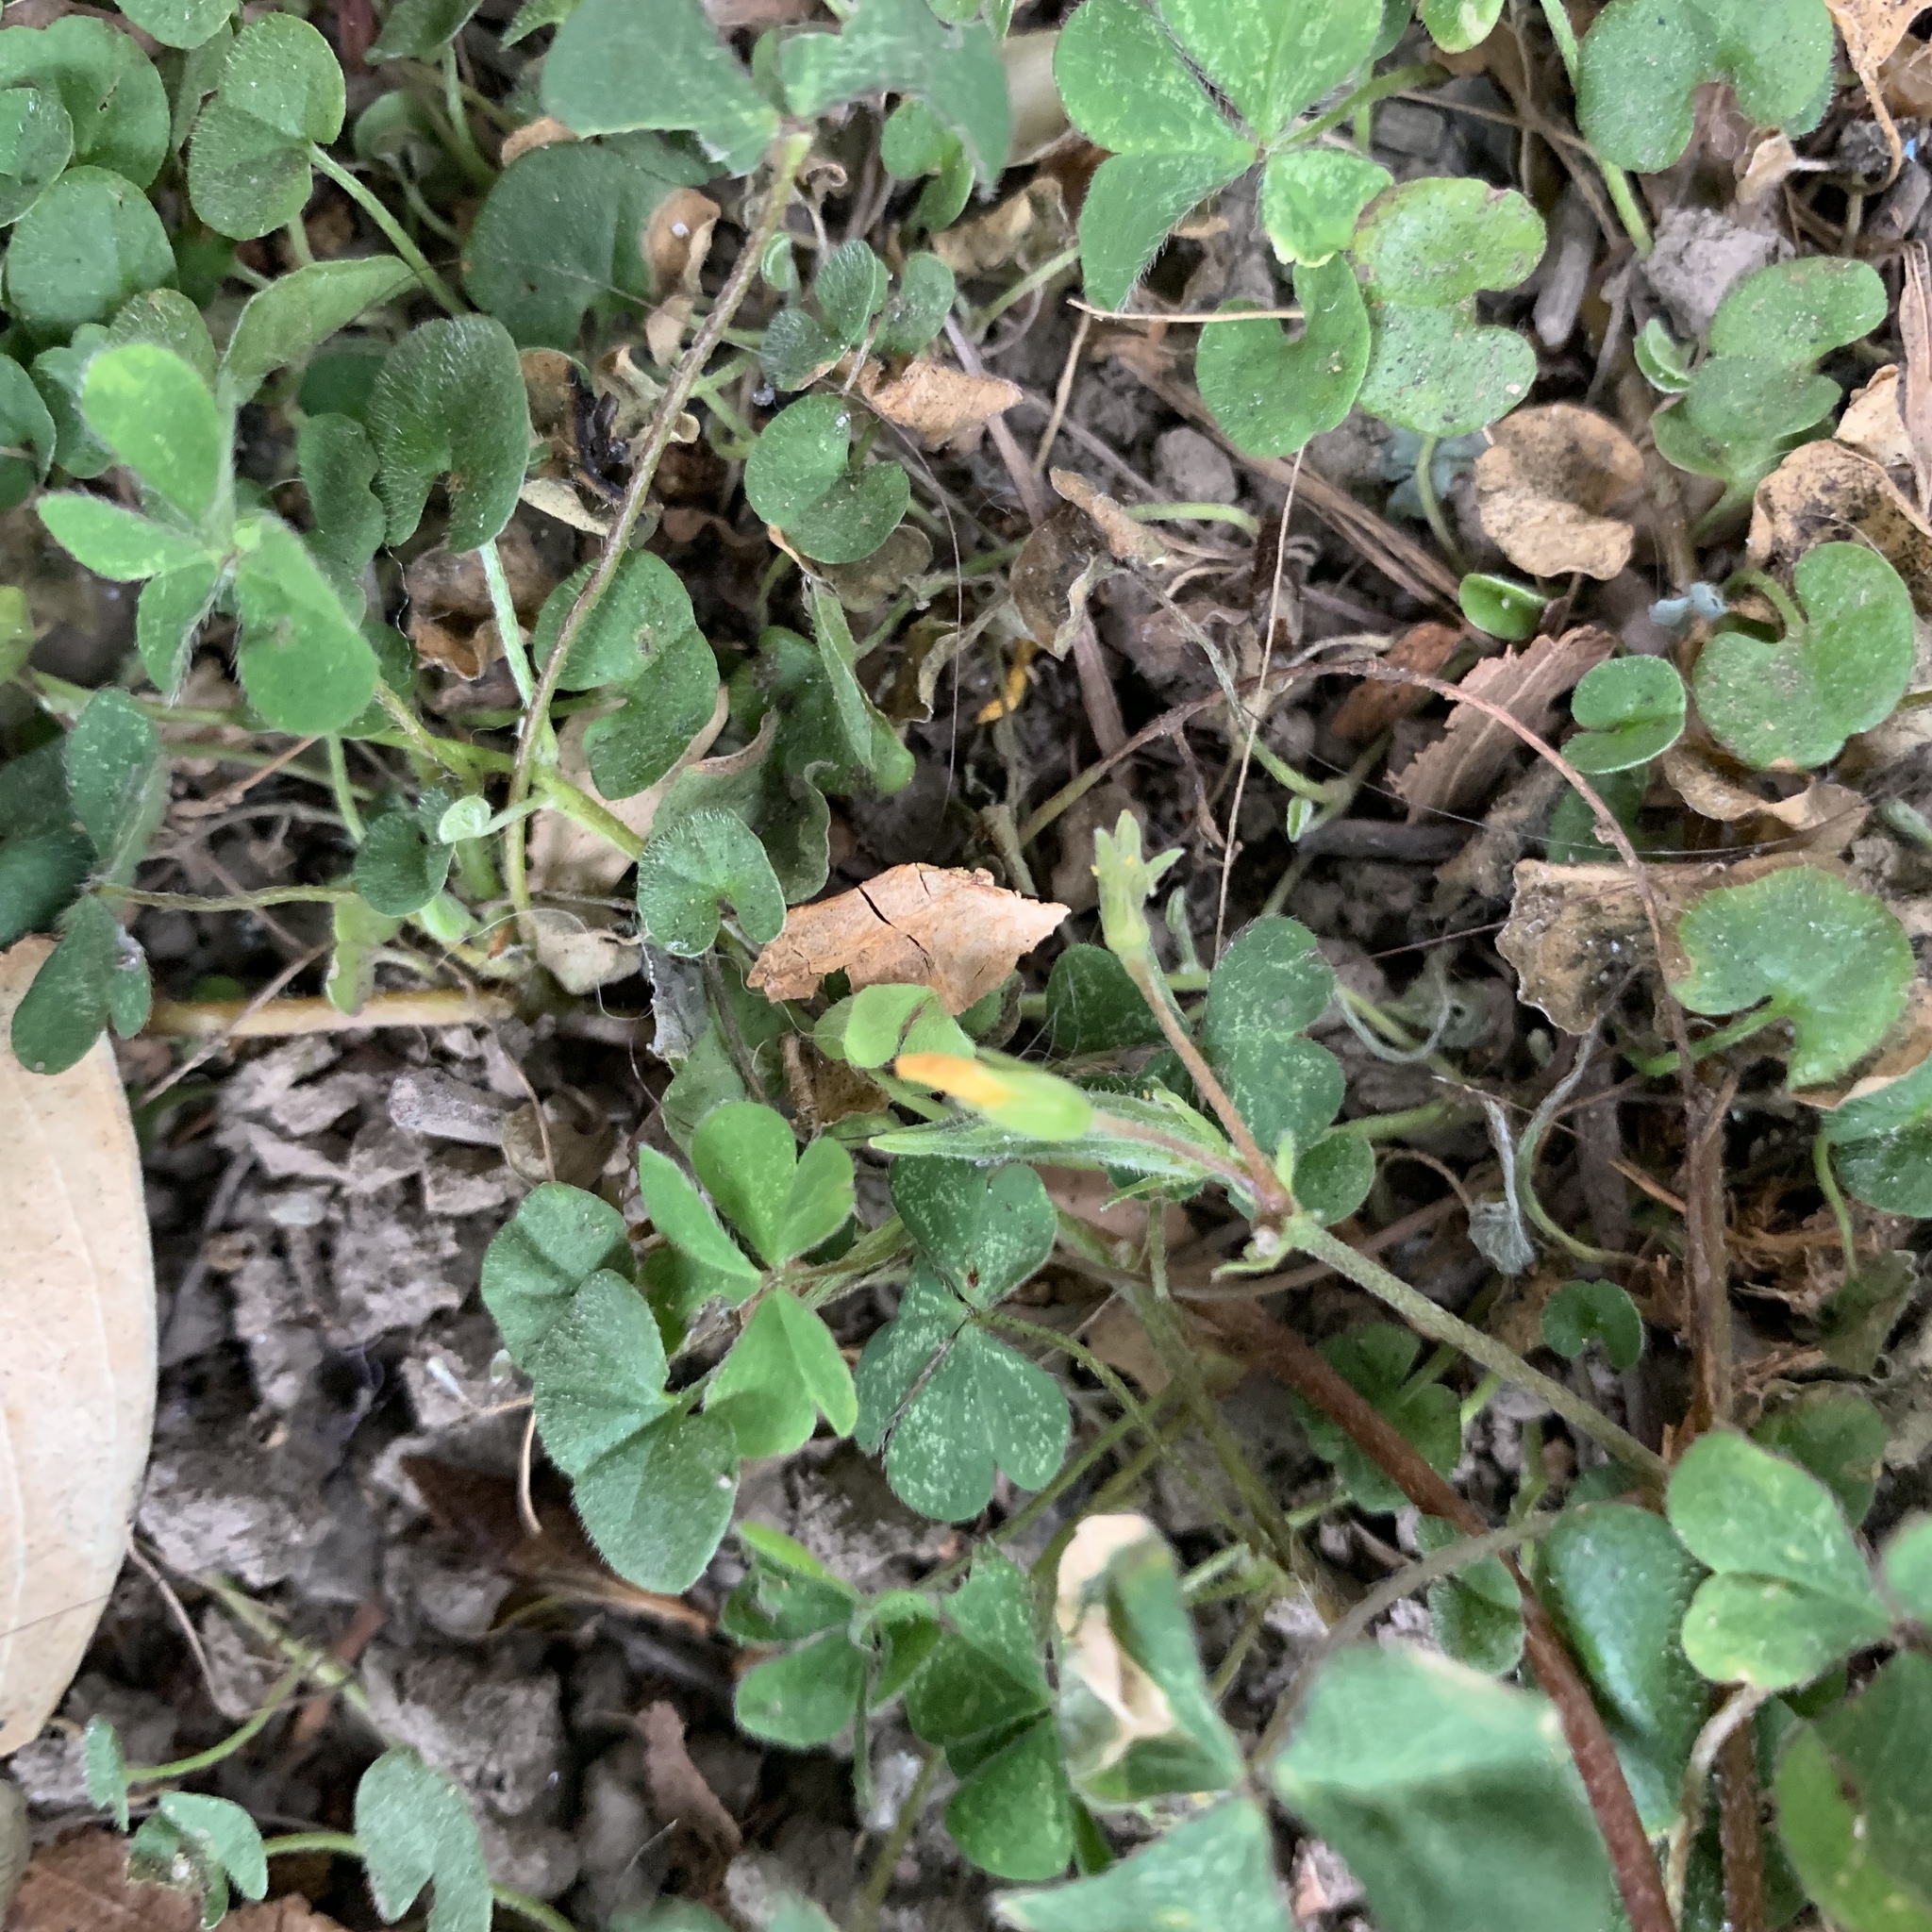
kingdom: Plantae
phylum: Tracheophyta
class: Magnoliopsida
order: Oxalidales
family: Oxalidaceae
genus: Oxalis
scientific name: Oxalis corniculata
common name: Procumbent yellow-sorrel
